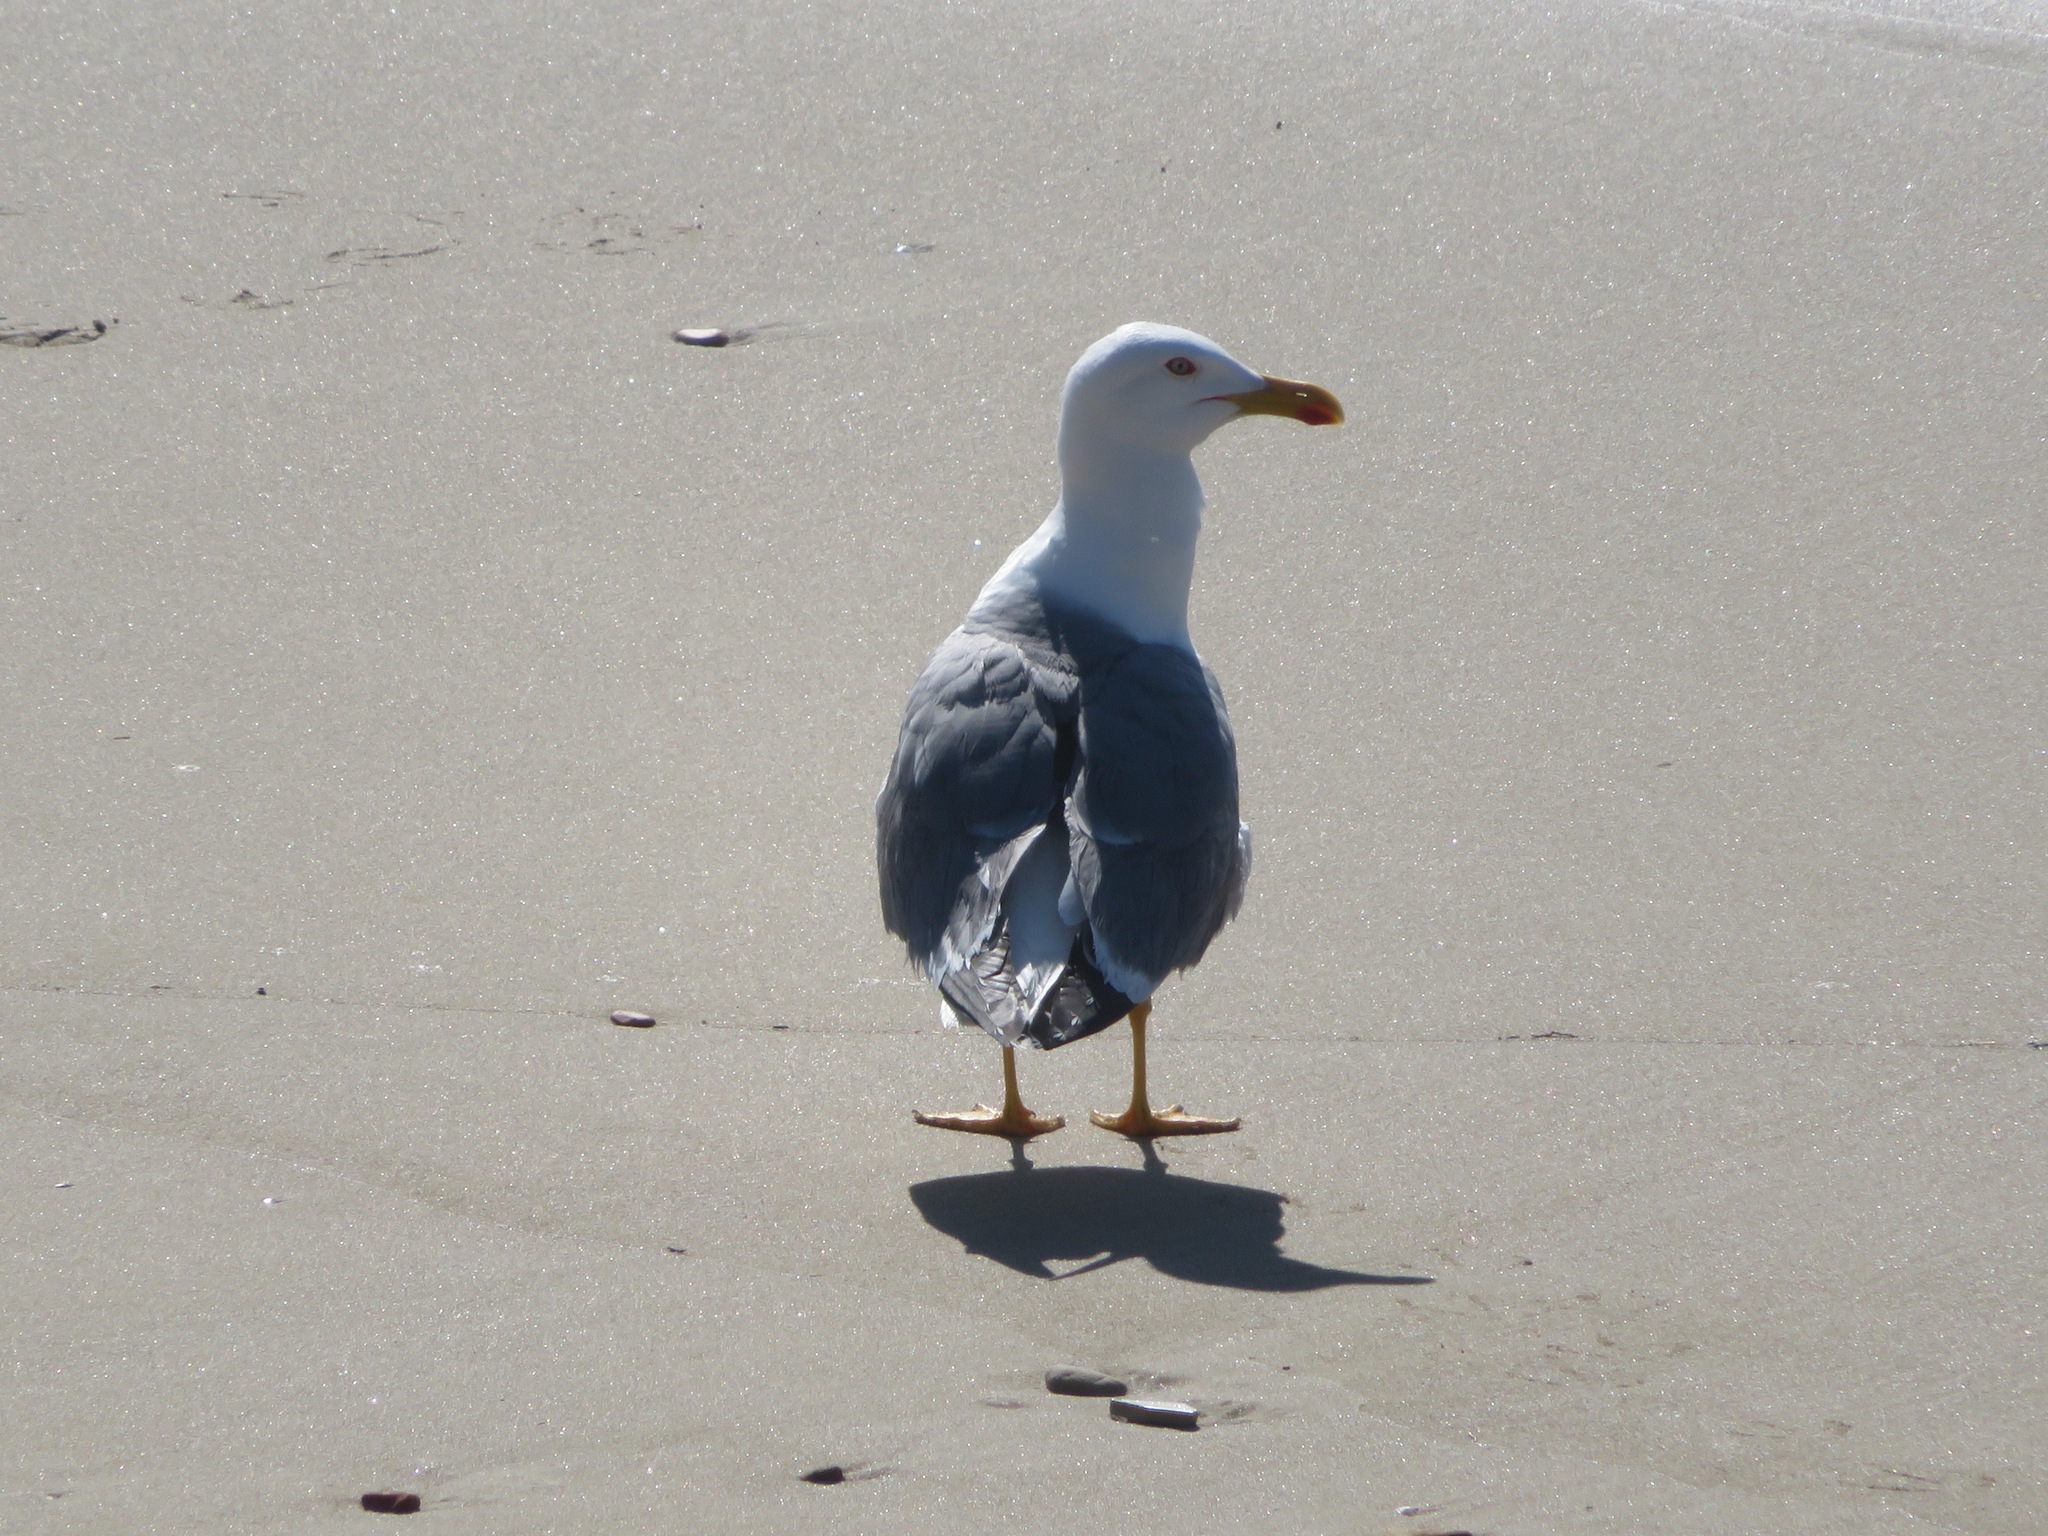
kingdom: Animalia
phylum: Chordata
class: Aves
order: Charadriiformes
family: Laridae
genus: Larus
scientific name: Larus michahellis
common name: Yellow-legged gull
